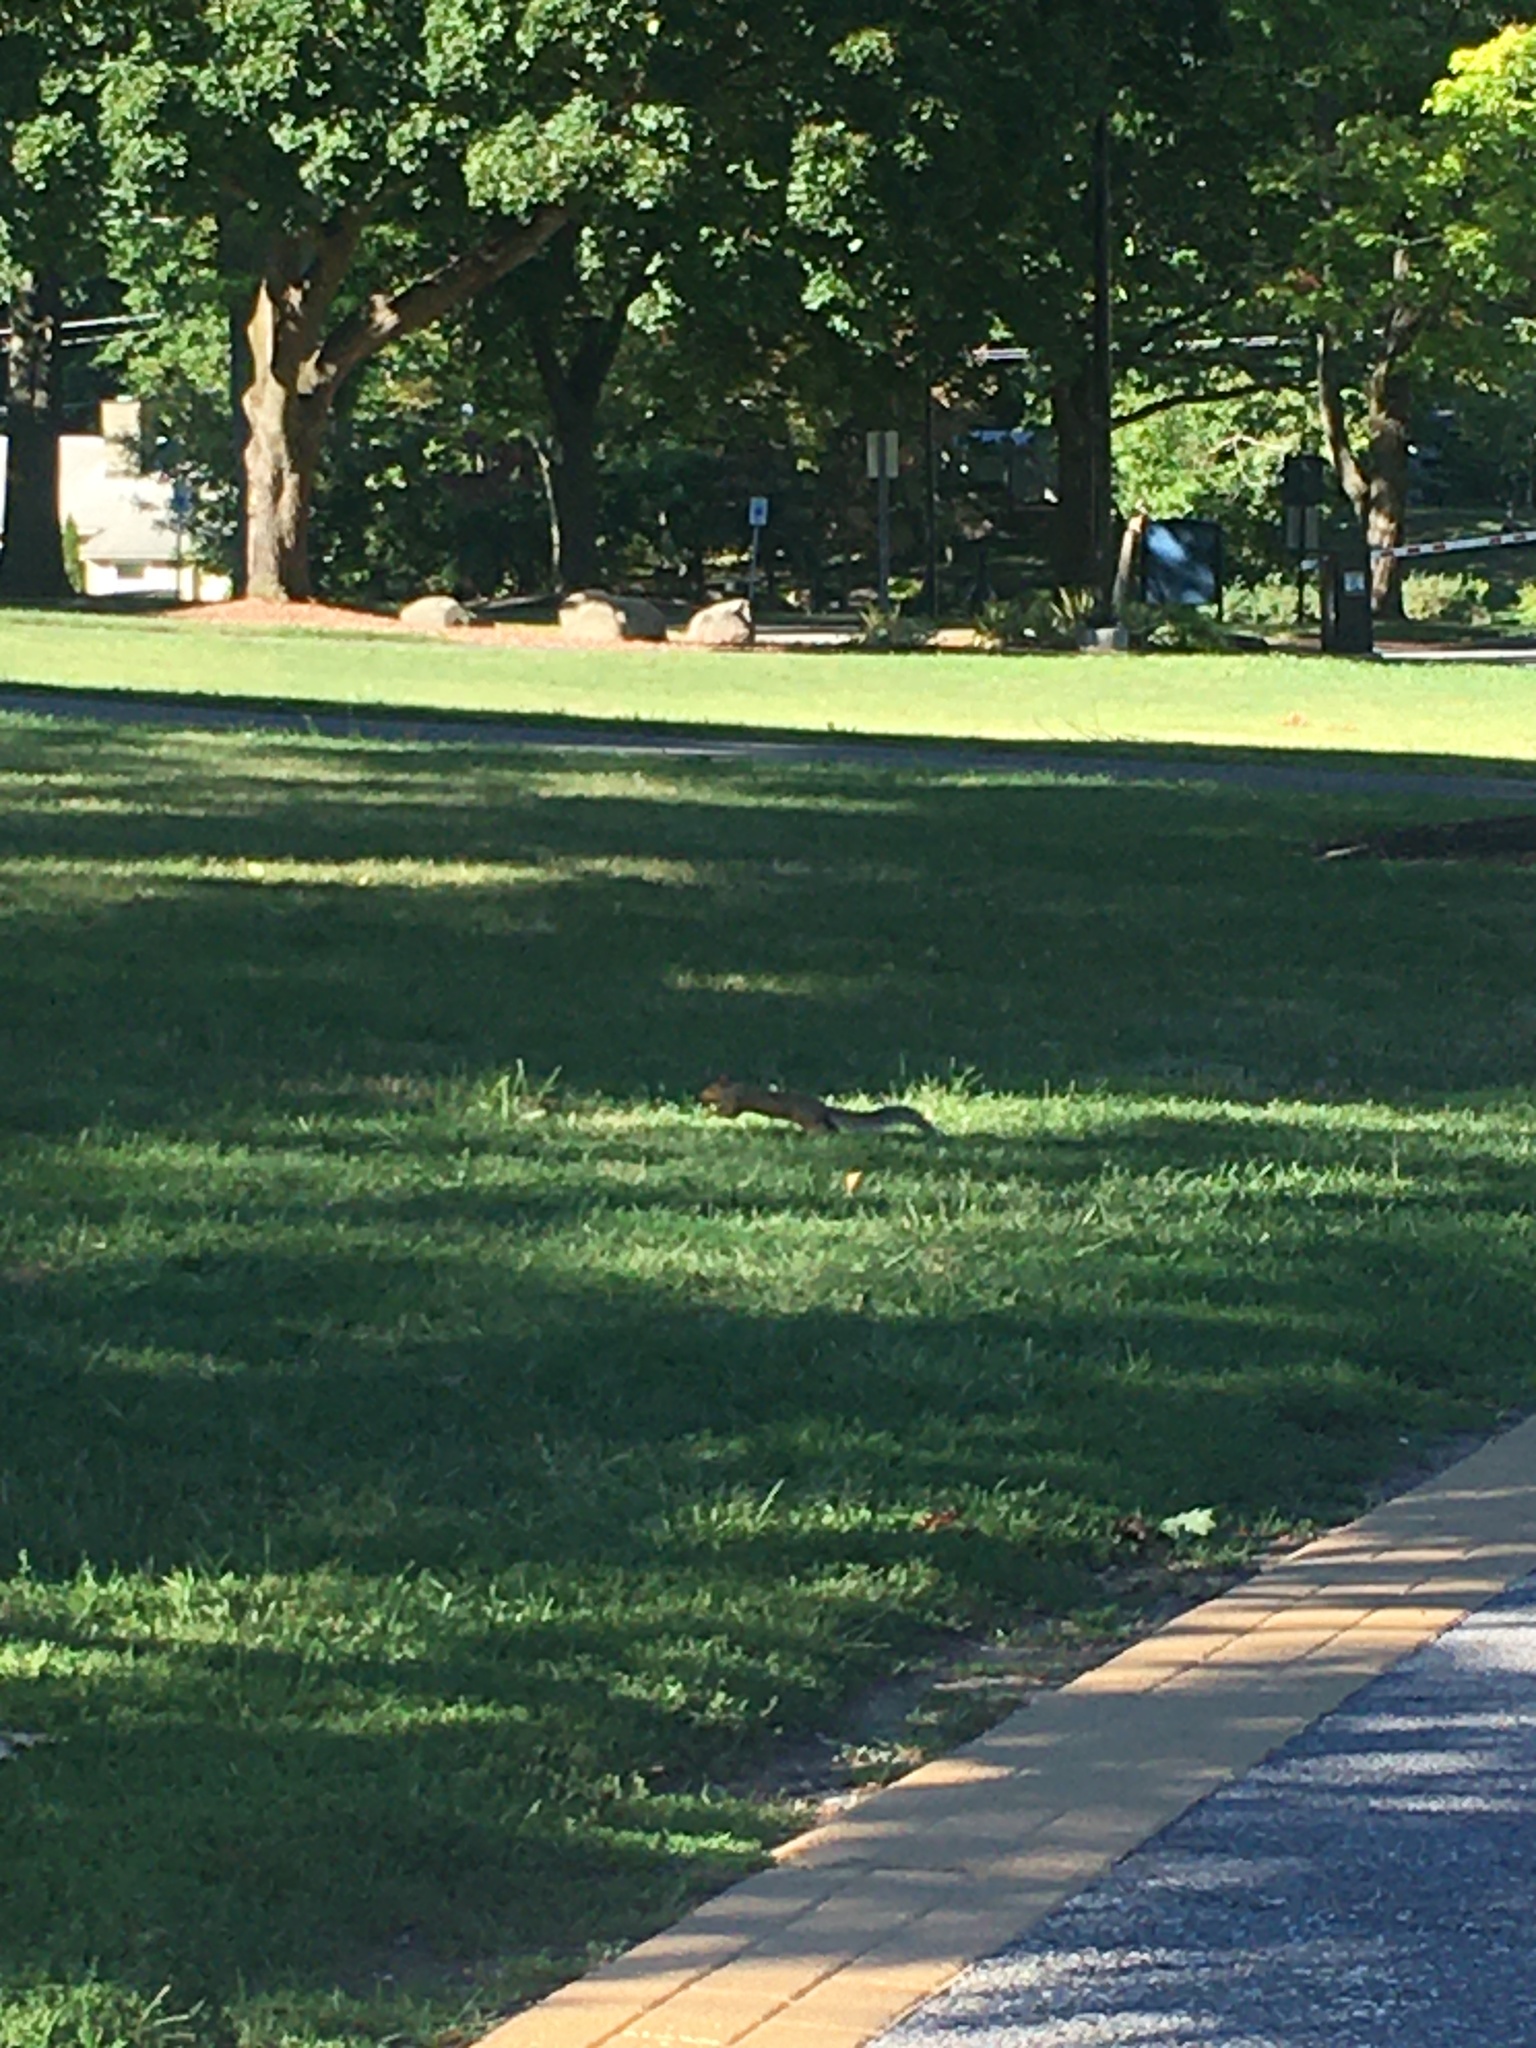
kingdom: Animalia
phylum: Chordata
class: Mammalia
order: Rodentia
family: Sciuridae
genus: Sciurus
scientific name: Sciurus carolinensis
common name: Eastern gray squirrel
